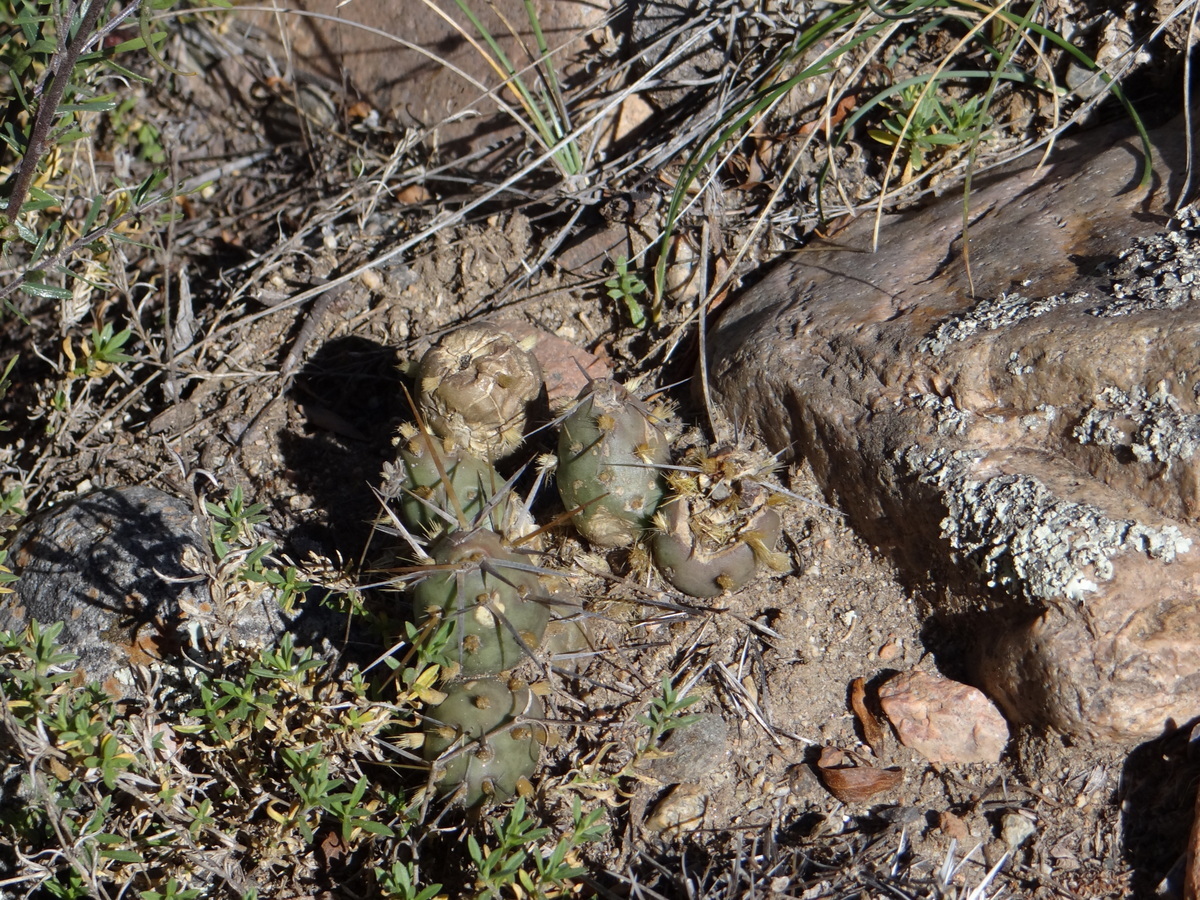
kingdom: Plantae
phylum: Tracheophyta
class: Magnoliopsida
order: Caryophyllales
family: Cactaceae
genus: Maihueniopsis
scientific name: Maihueniopsis ovata
